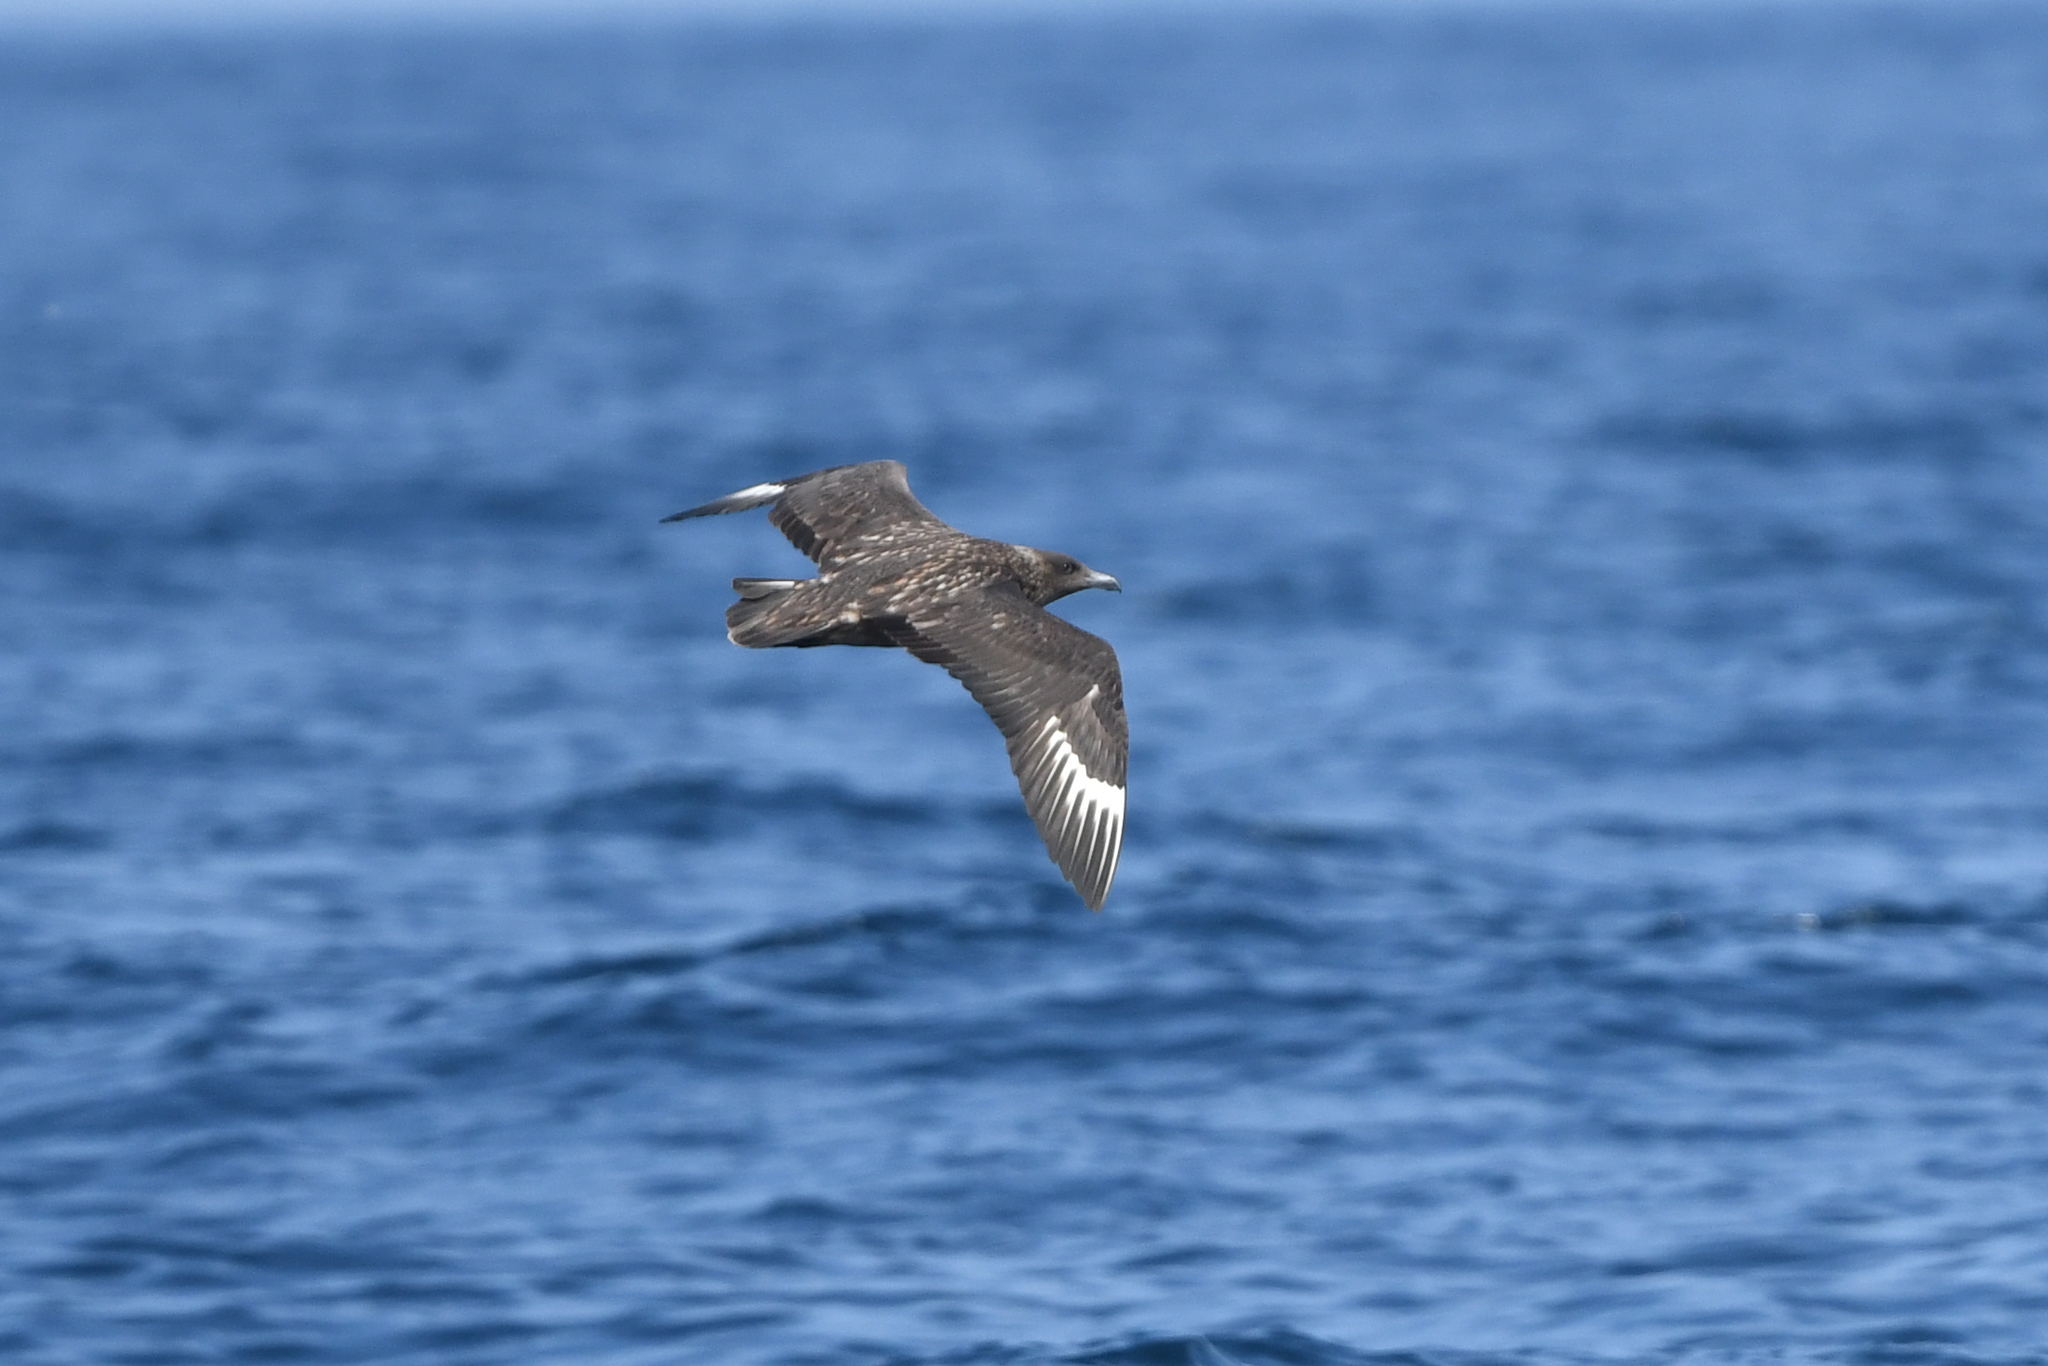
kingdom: Animalia
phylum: Chordata
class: Aves
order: Charadriiformes
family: Stercorariidae
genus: Stercorarius
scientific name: Stercorarius skua
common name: Great skua
